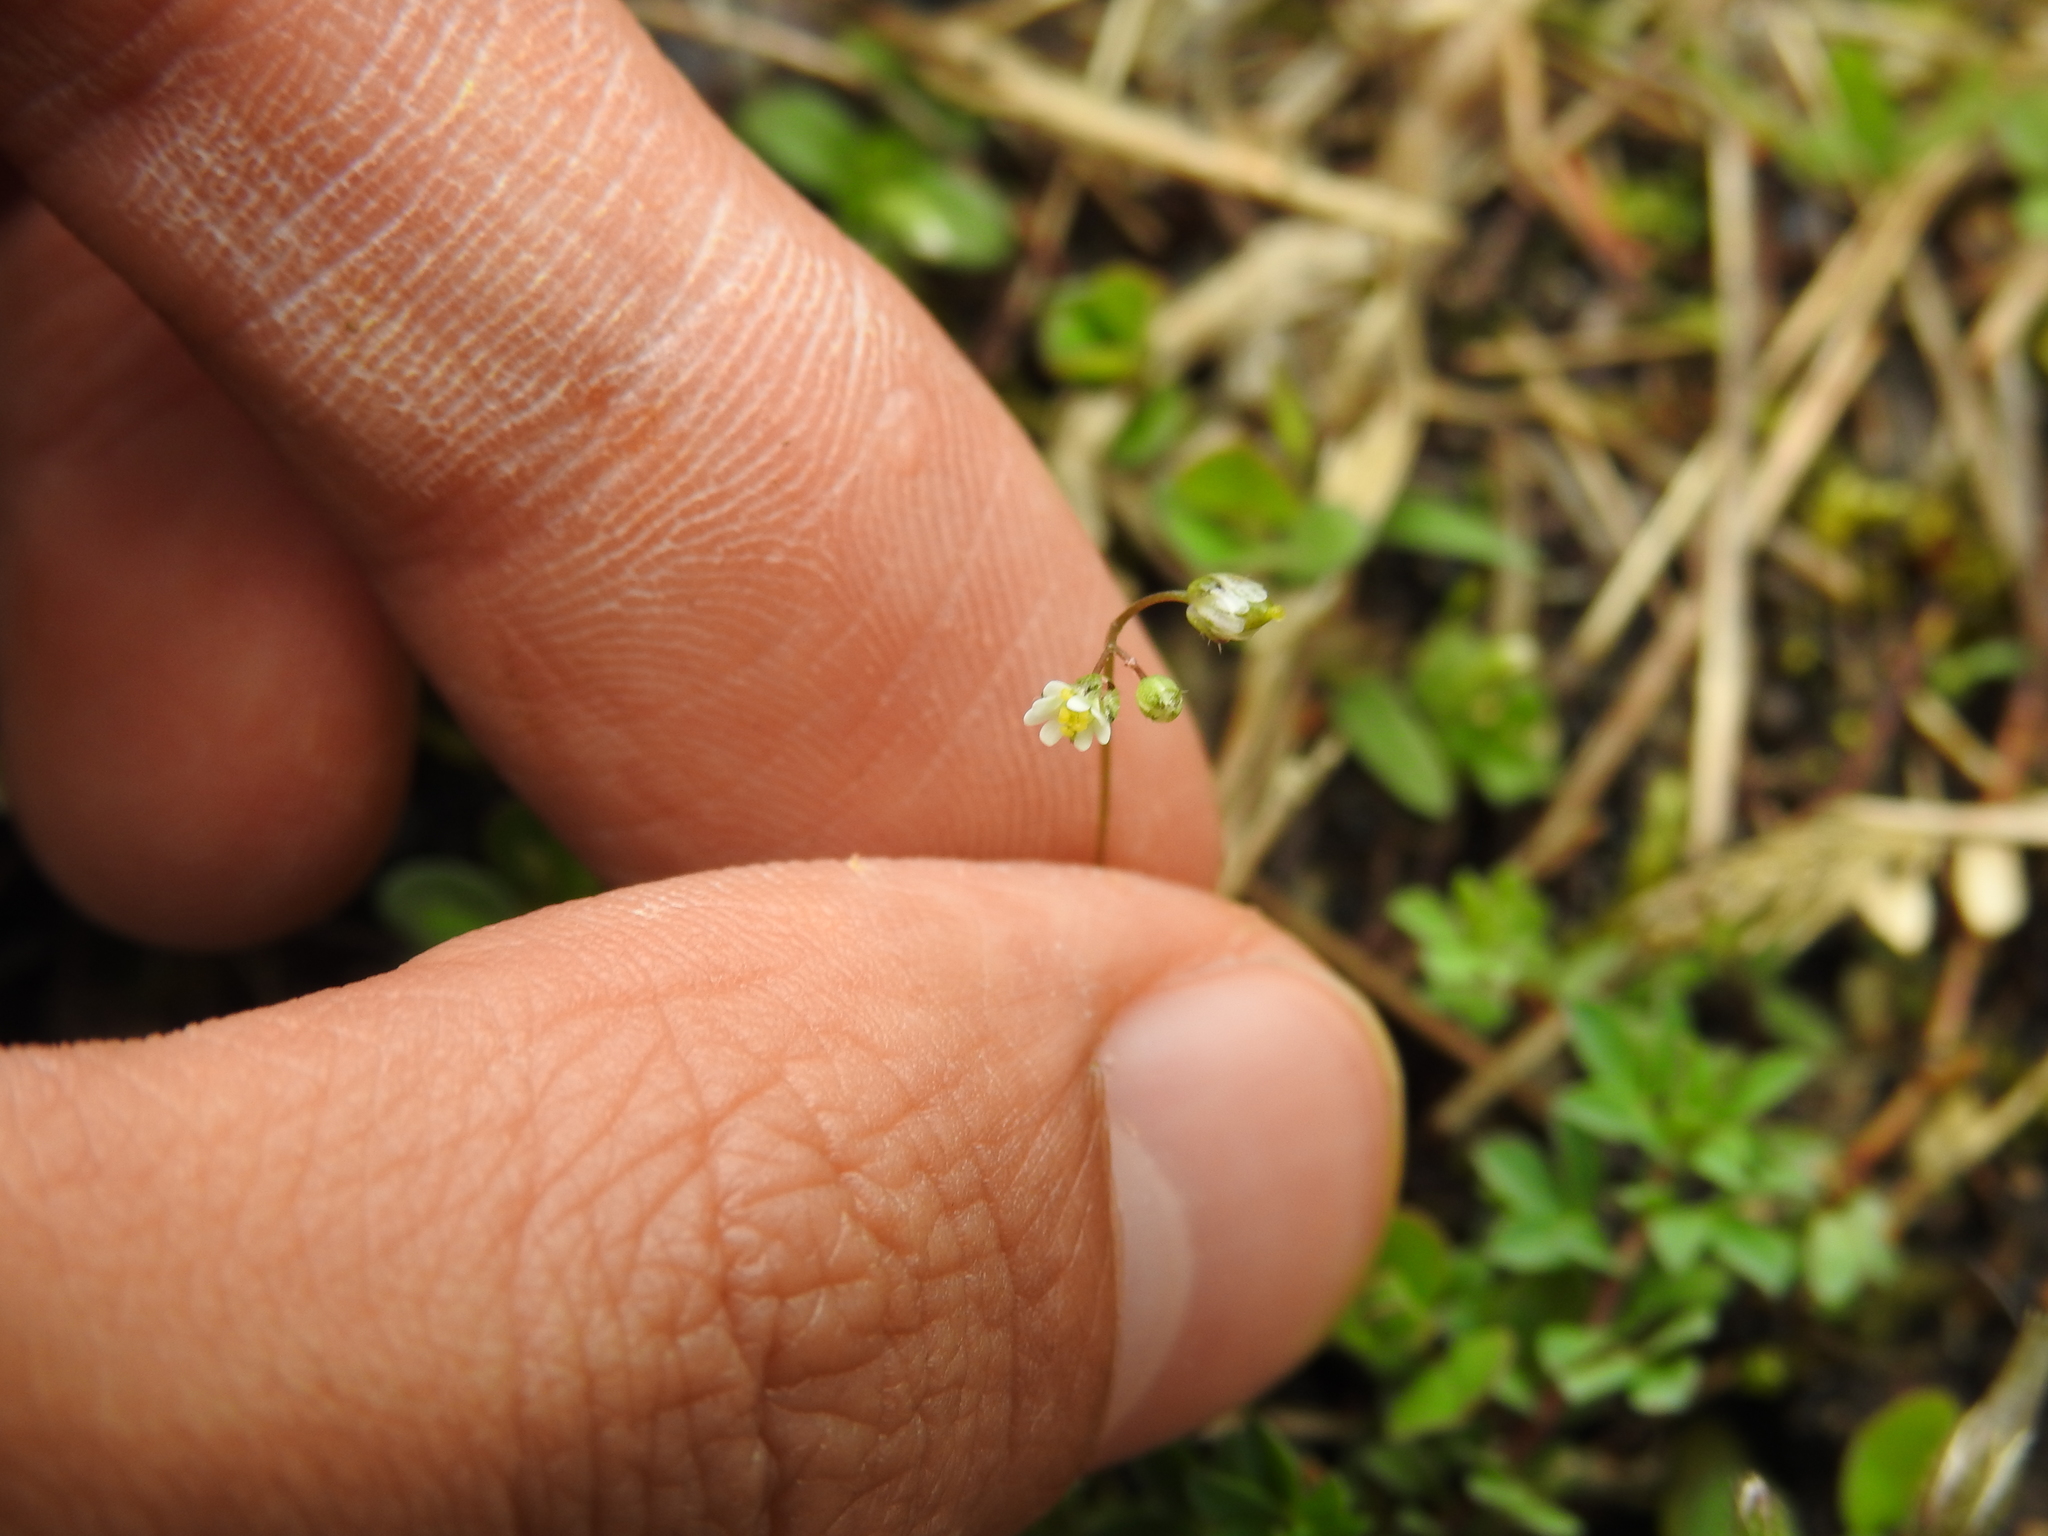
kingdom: Plantae
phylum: Tracheophyta
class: Magnoliopsida
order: Brassicales
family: Brassicaceae
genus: Draba
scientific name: Draba verna
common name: Spring draba
